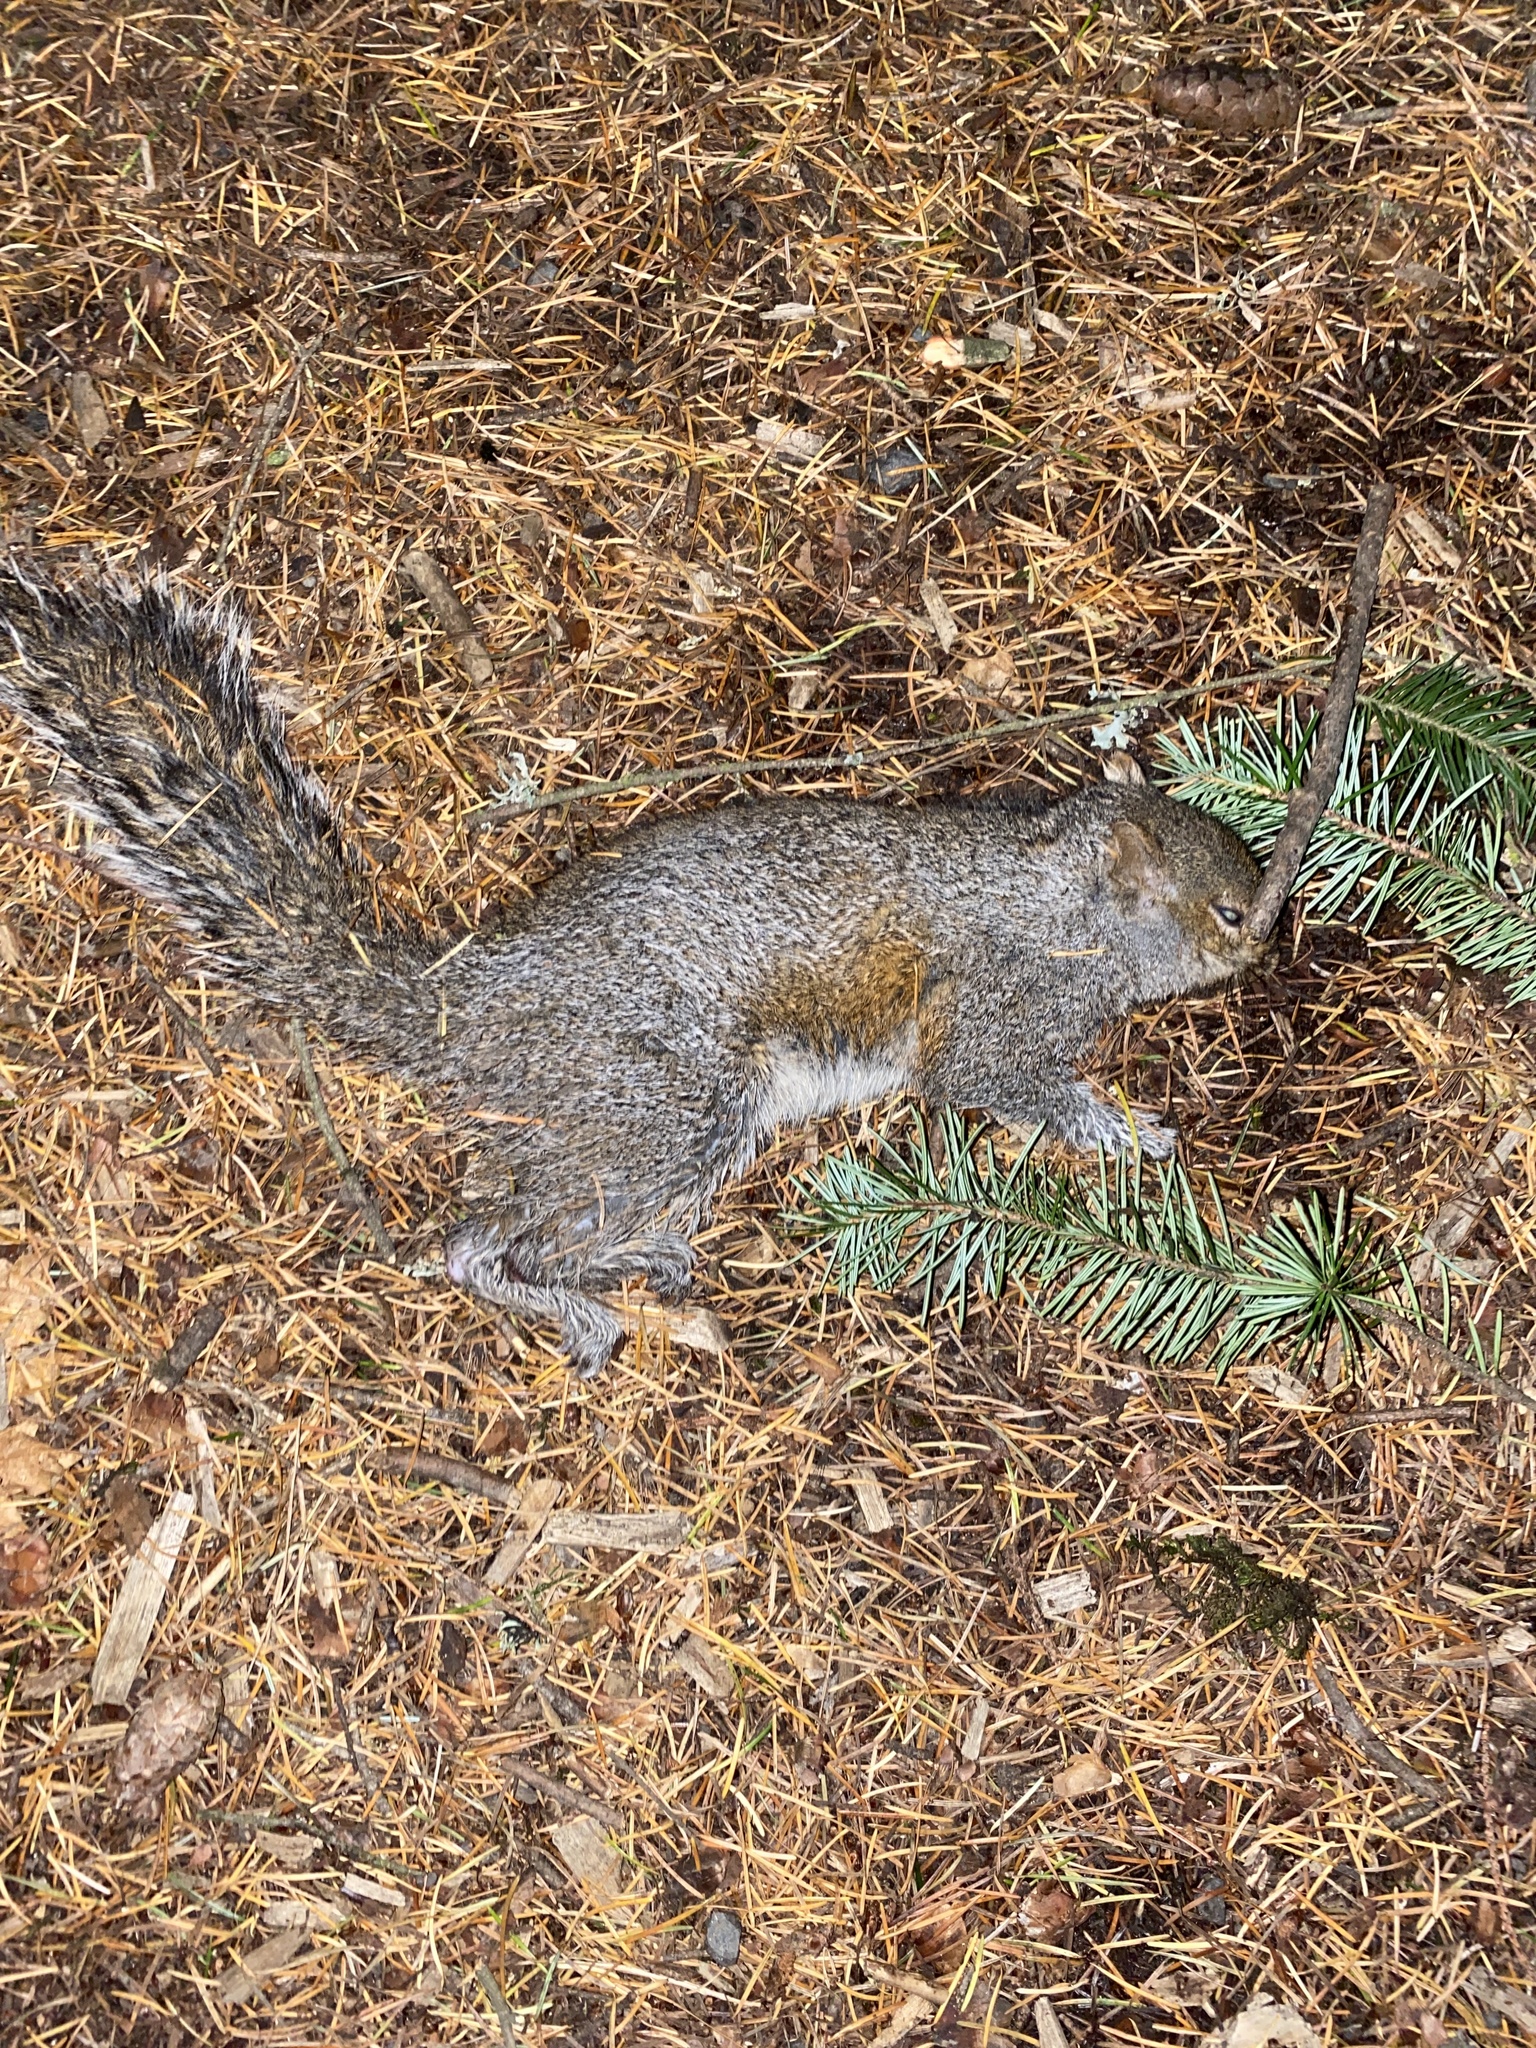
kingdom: Animalia
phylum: Chordata
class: Mammalia
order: Rodentia
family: Sciuridae
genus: Sciurus
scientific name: Sciurus carolinensis
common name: Eastern gray squirrel
